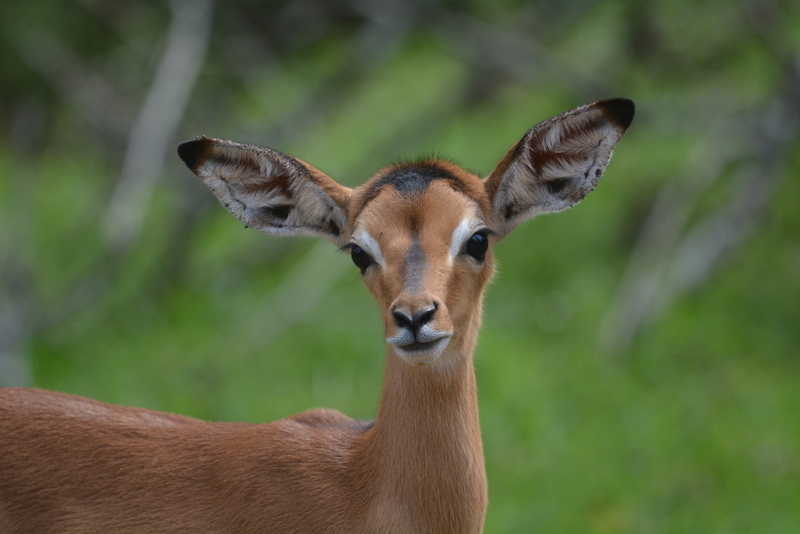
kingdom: Animalia
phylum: Chordata
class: Mammalia
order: Artiodactyla
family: Bovidae
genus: Aepyceros
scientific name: Aepyceros melampus
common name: Impala
